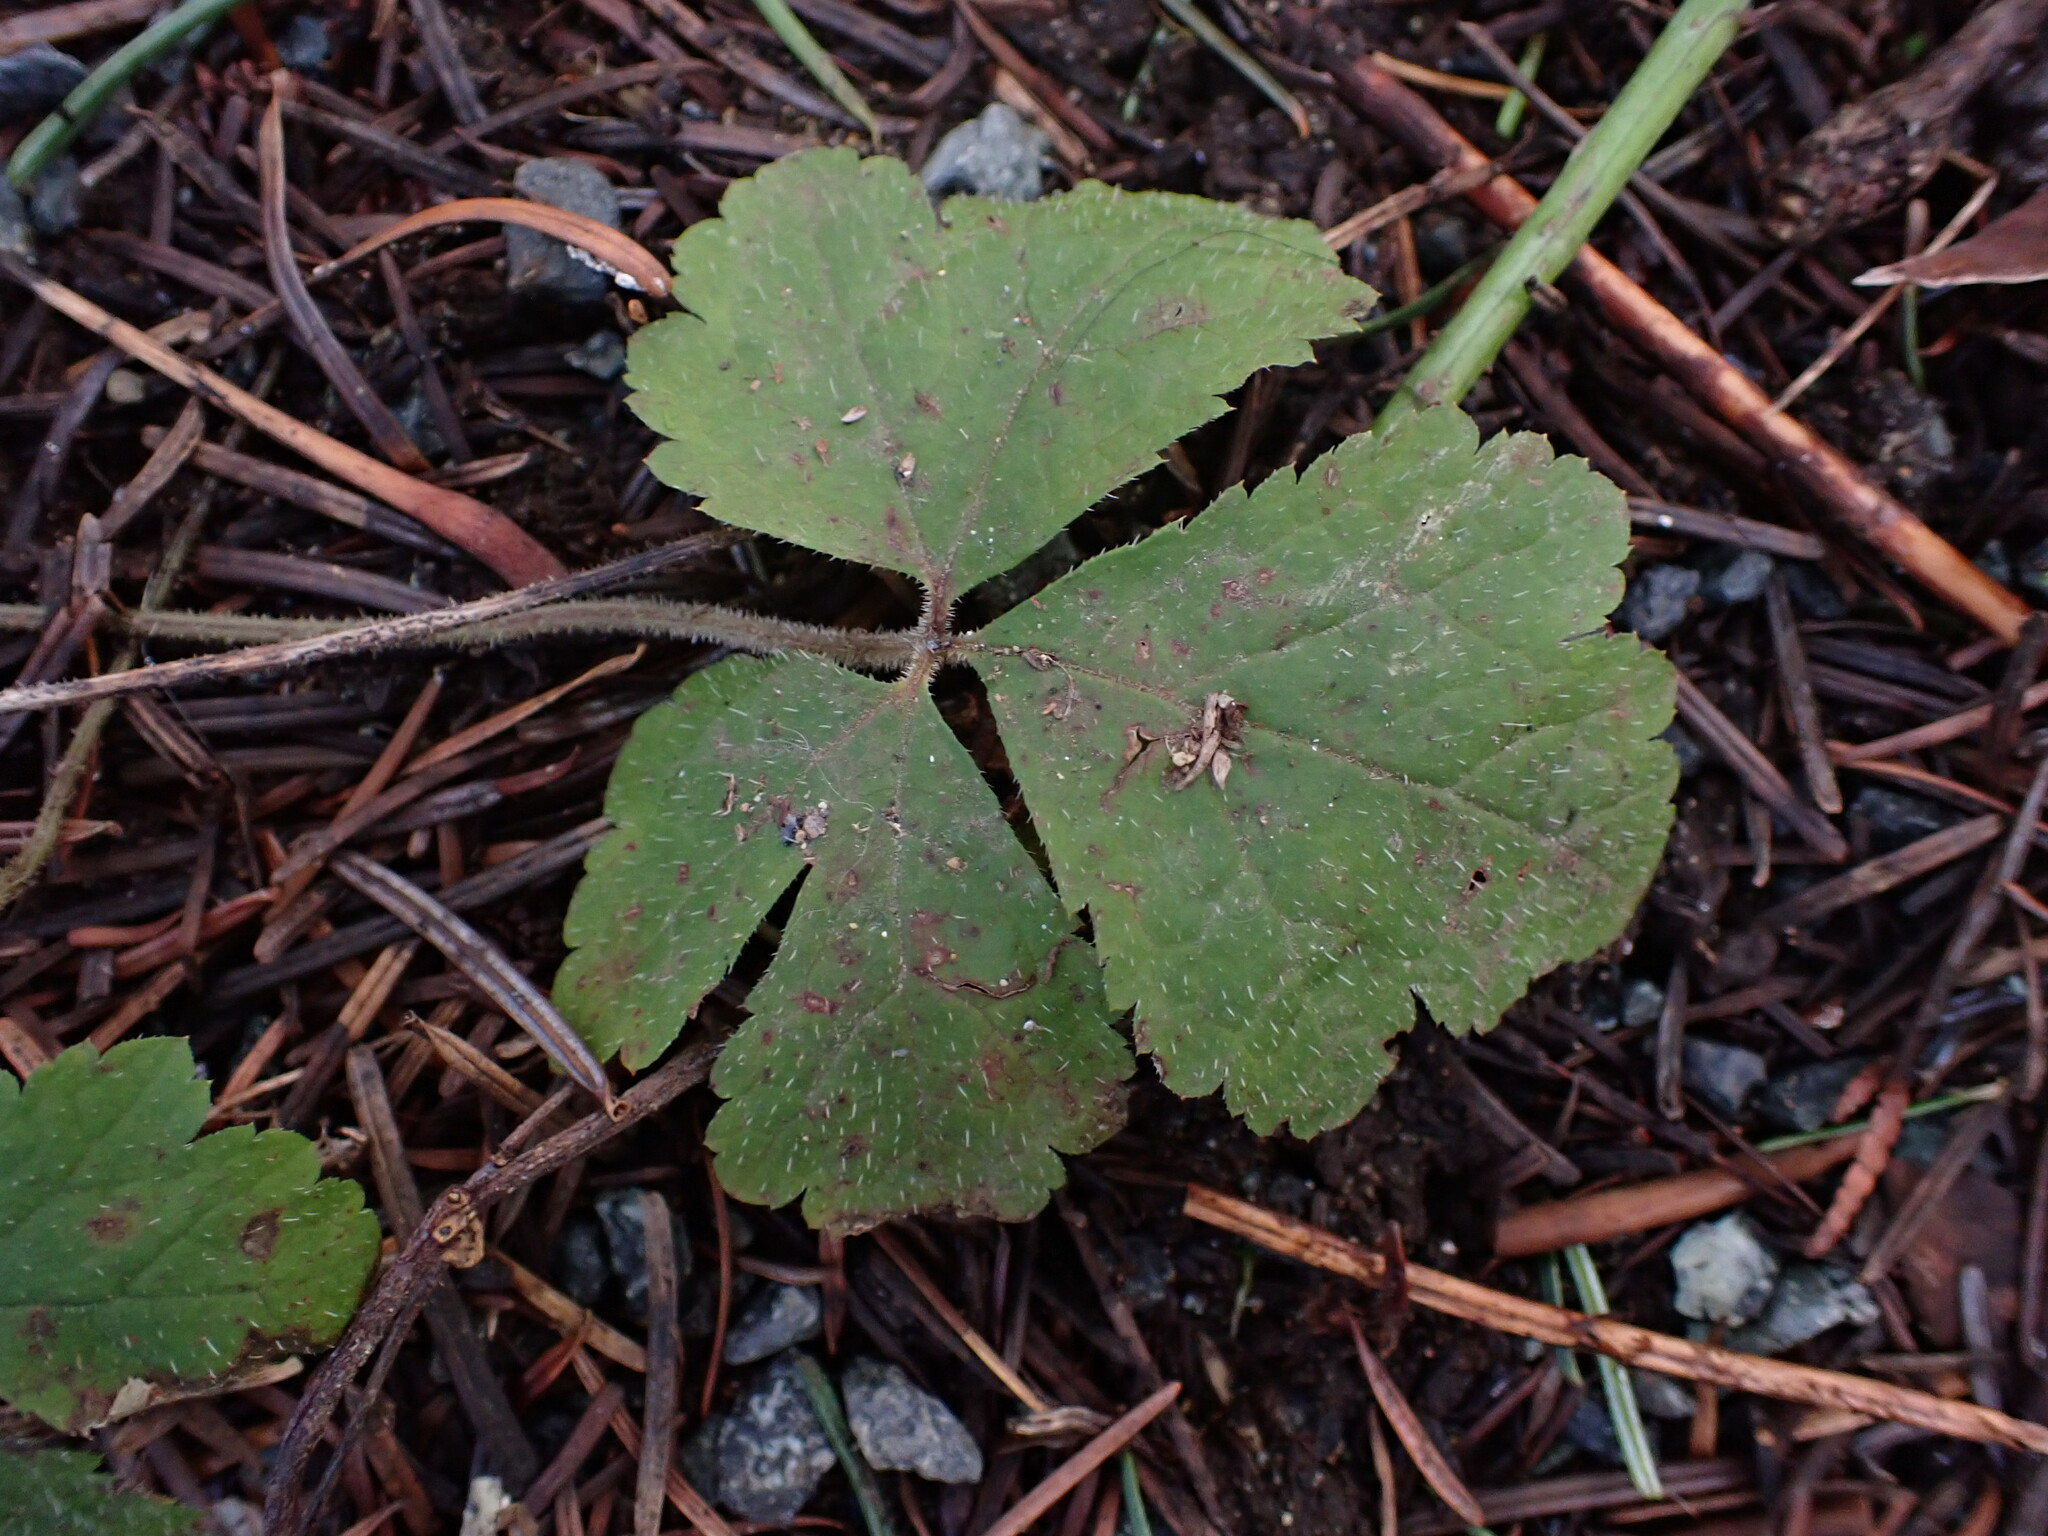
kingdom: Plantae
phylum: Tracheophyta
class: Magnoliopsida
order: Saxifragales
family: Saxifragaceae
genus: Tiarella
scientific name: Tiarella trifoliata
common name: Sugar-scoop
